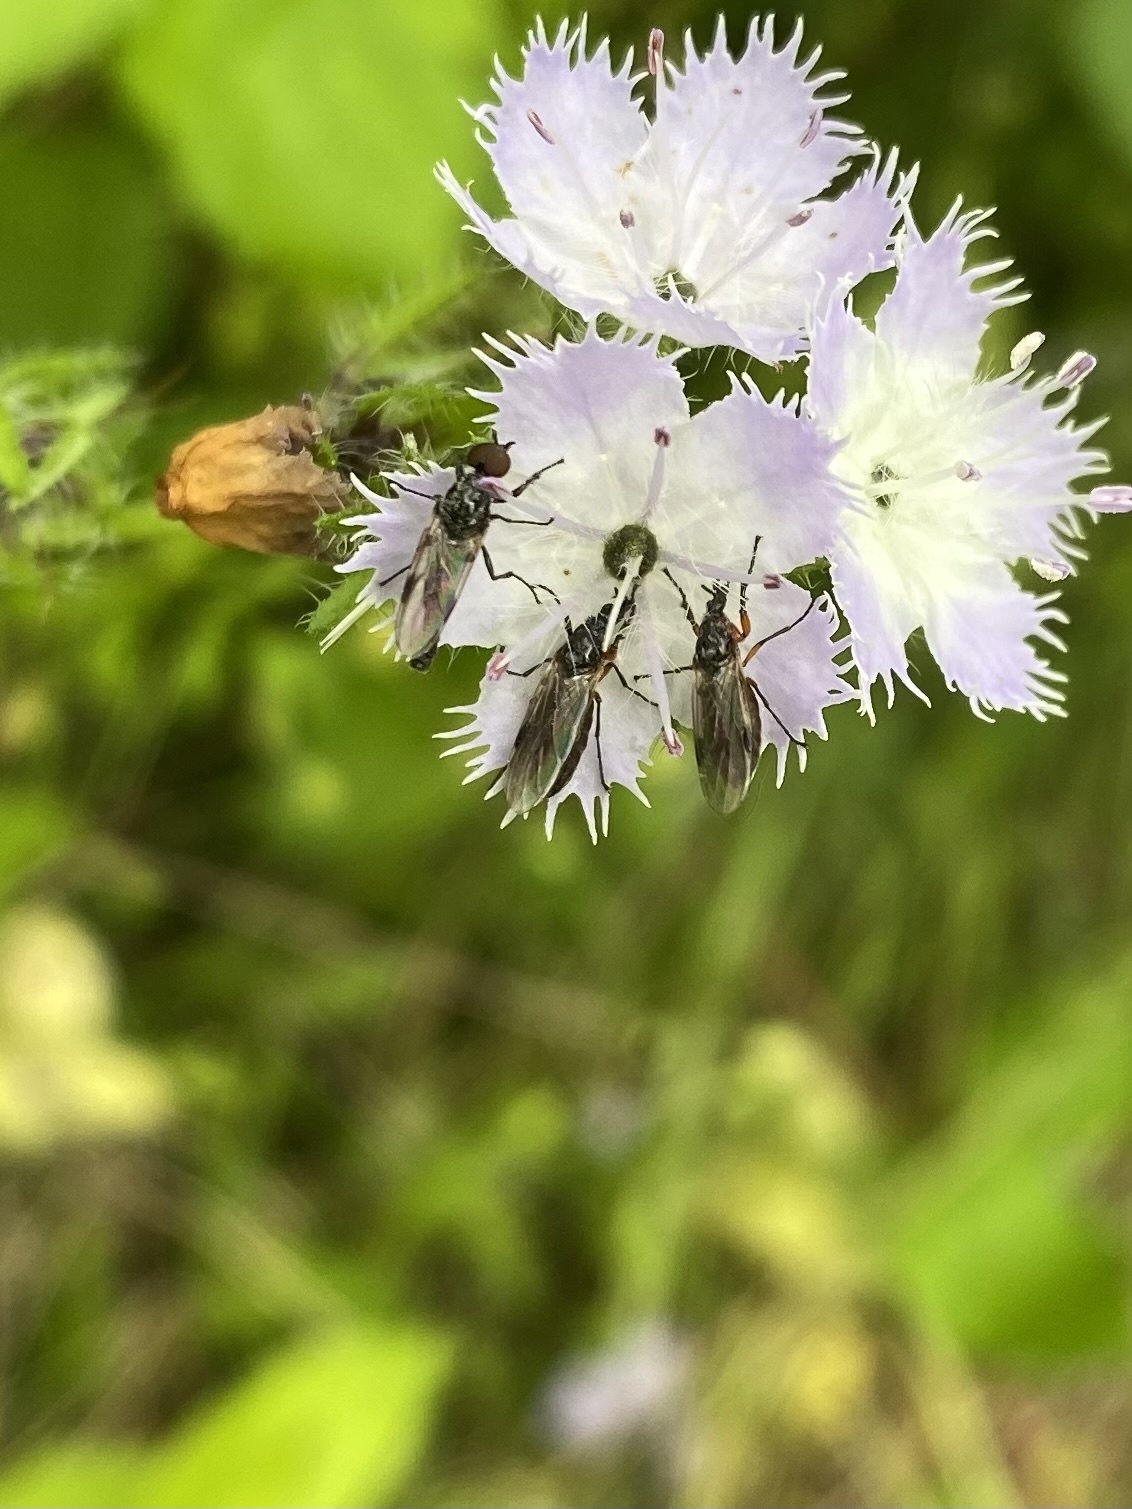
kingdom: Animalia
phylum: Arthropoda
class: Insecta
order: Diptera
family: Bibionidae
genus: Bibio
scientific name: Bibio
